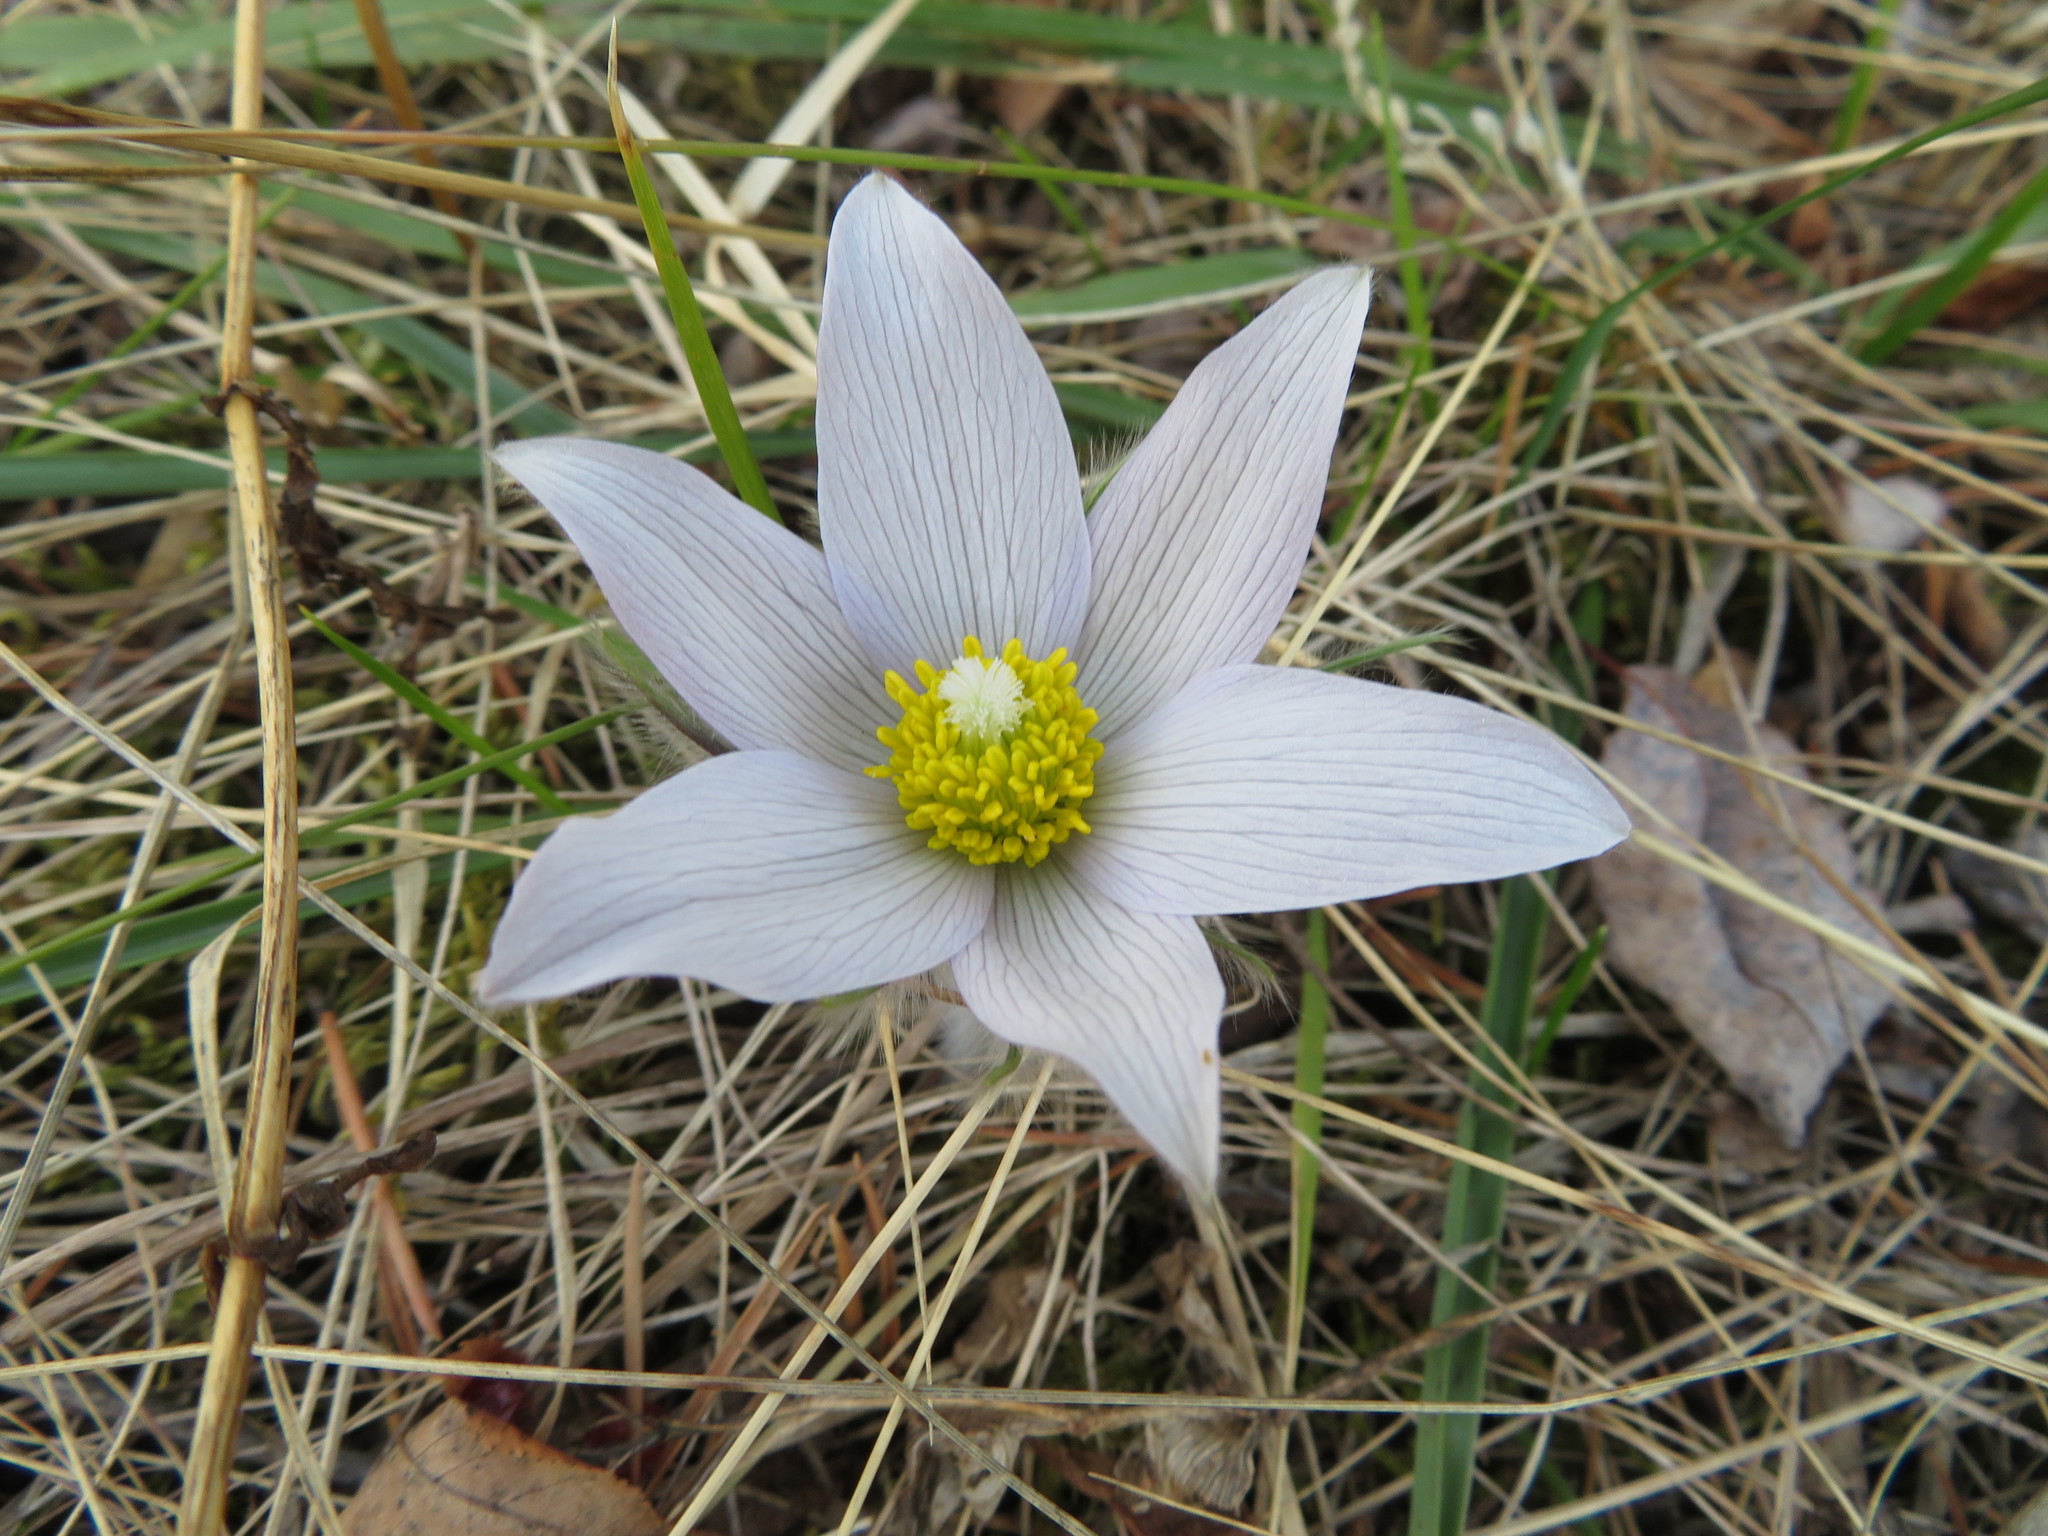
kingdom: Plantae
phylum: Tracheophyta
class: Magnoliopsida
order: Ranunculales
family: Ranunculaceae
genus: Pulsatilla
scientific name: Pulsatilla nuttalliana
